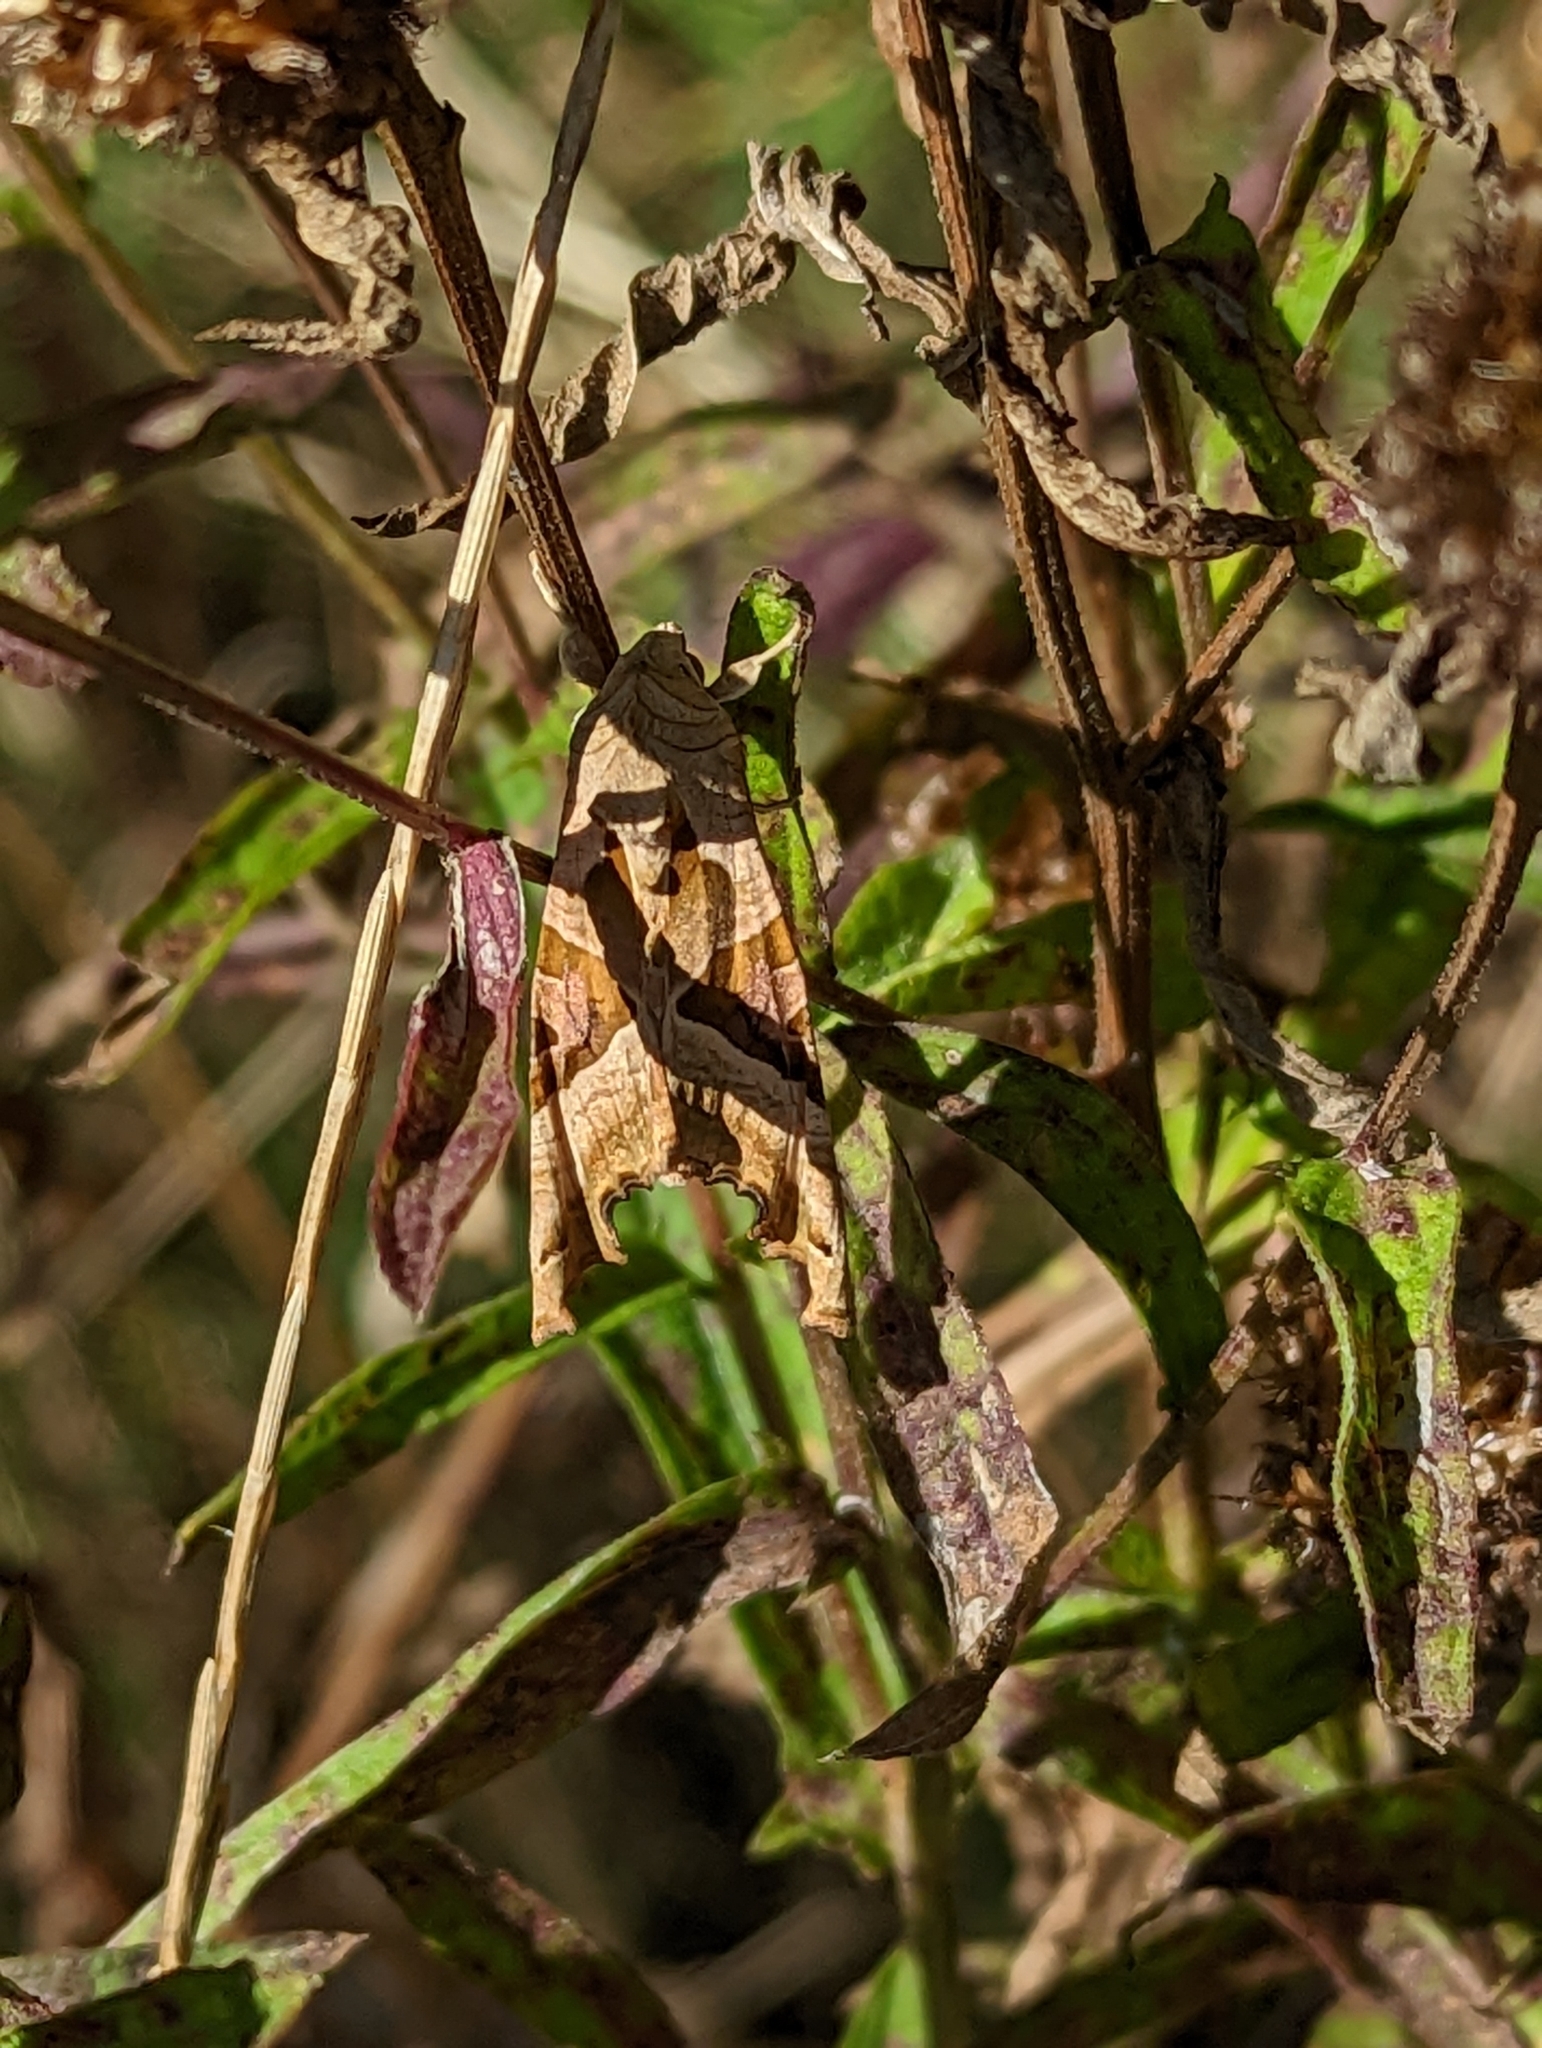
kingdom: Animalia
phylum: Arthropoda
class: Insecta
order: Lepidoptera
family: Noctuidae
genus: Phlogophora
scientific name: Phlogophora meticulosa
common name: Angle shades
